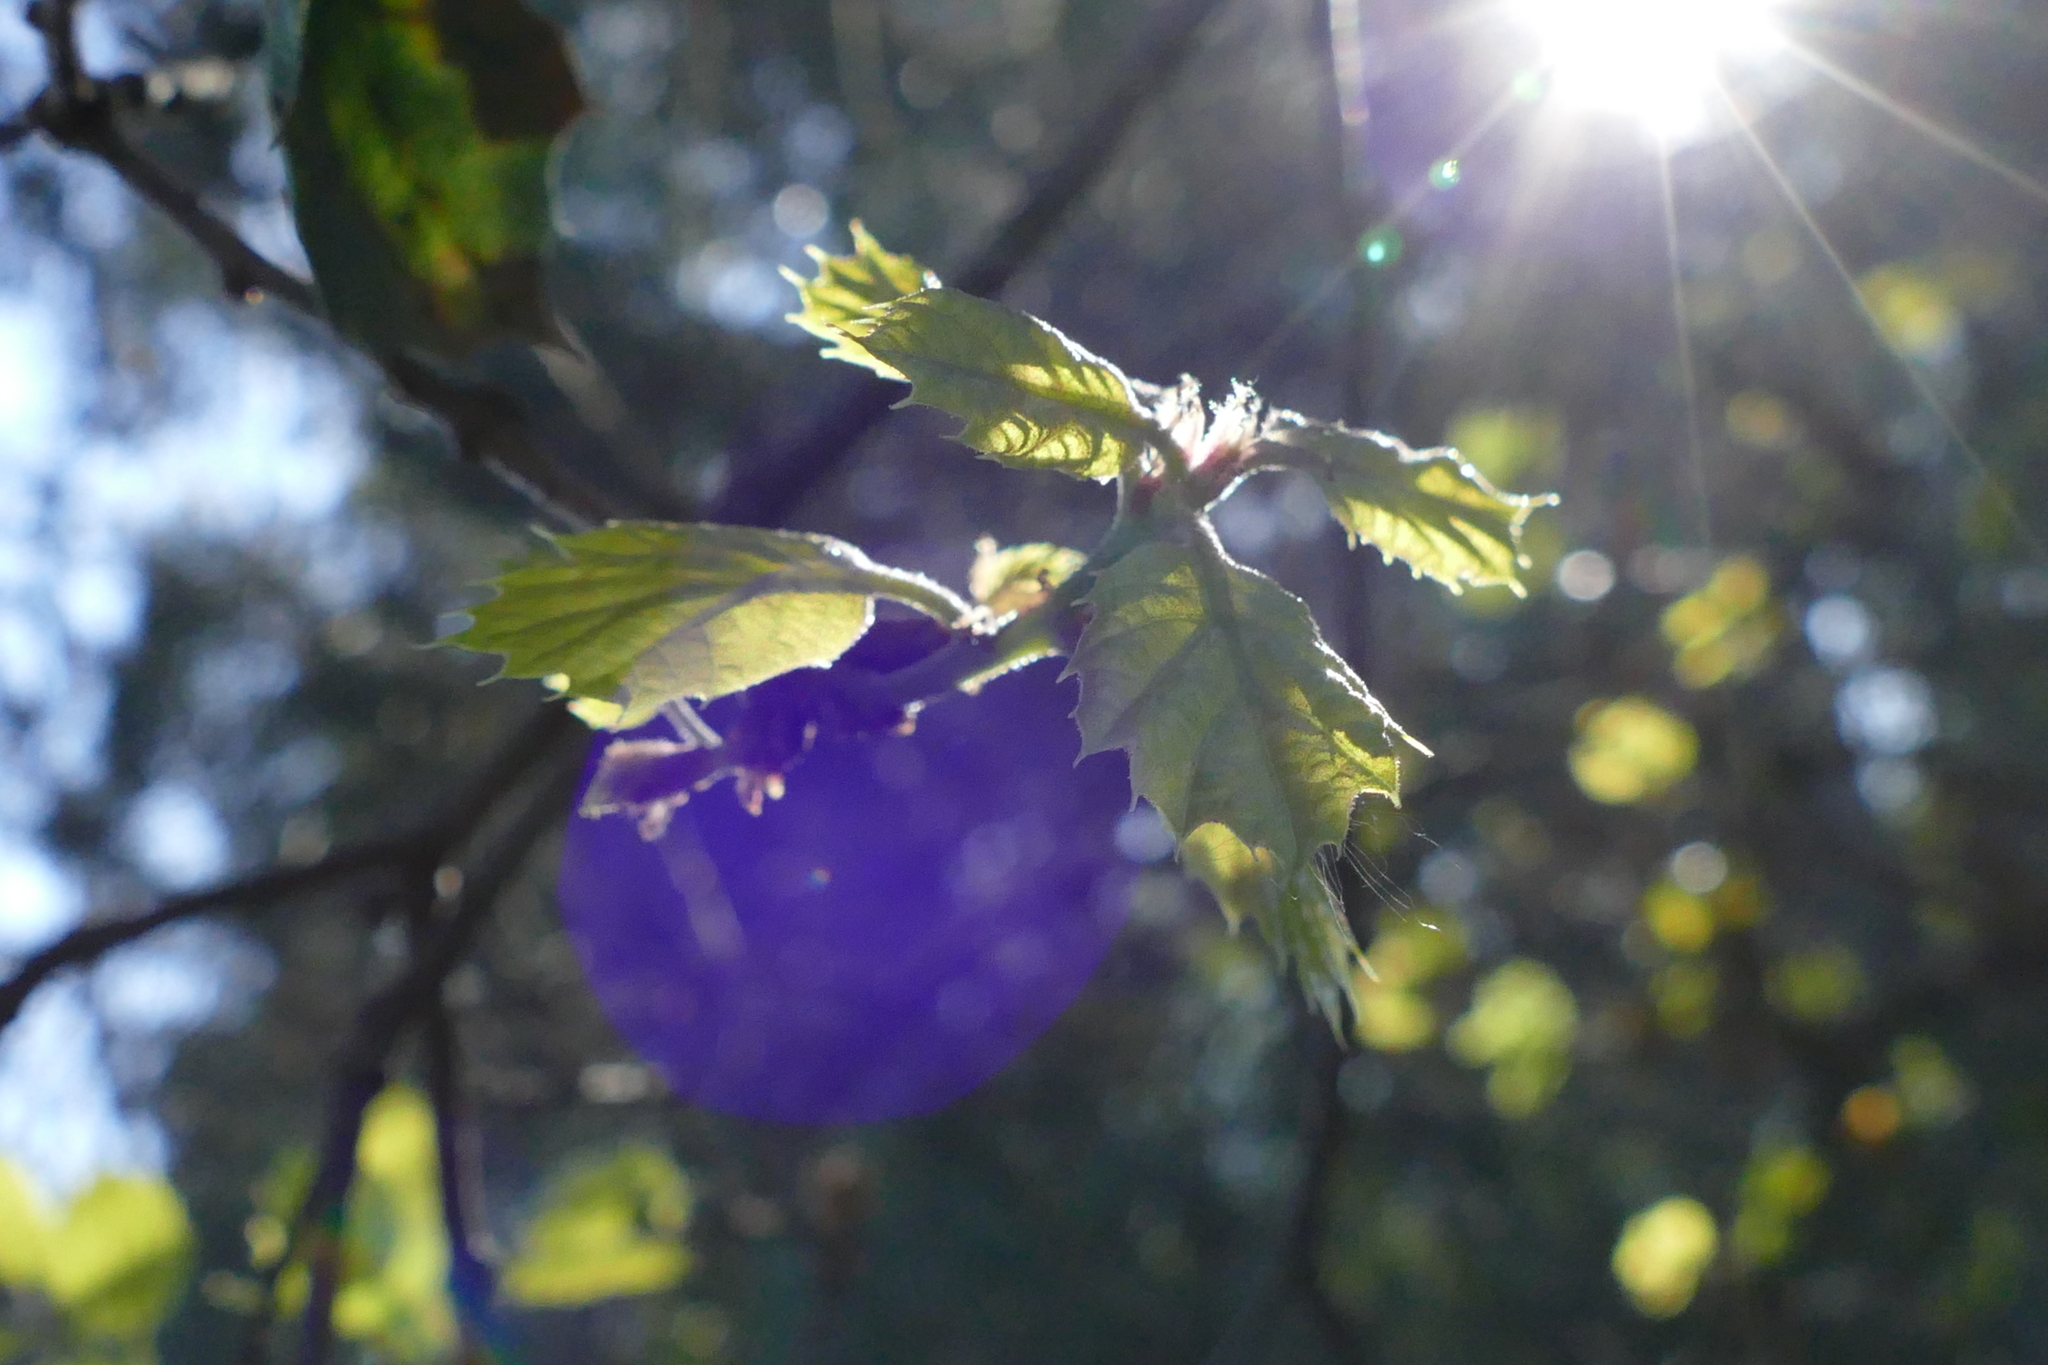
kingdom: Plantae
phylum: Tracheophyta
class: Magnoliopsida
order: Fagales
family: Fagaceae
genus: Quercus
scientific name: Quercus agrifolia
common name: California live oak
